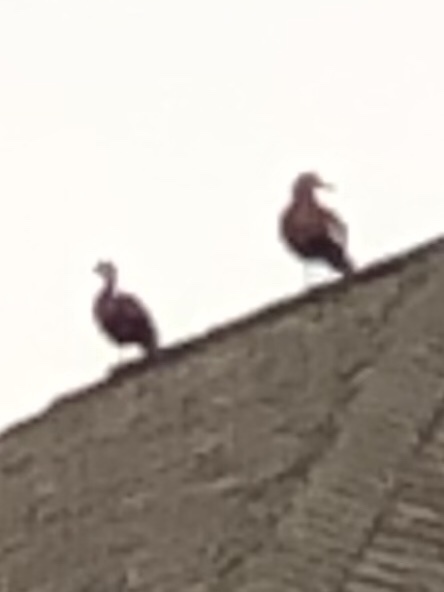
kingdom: Animalia
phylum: Chordata
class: Aves
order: Anseriformes
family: Anatidae
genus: Dendrocygna
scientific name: Dendrocygna autumnalis
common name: Black-bellied whistling duck
